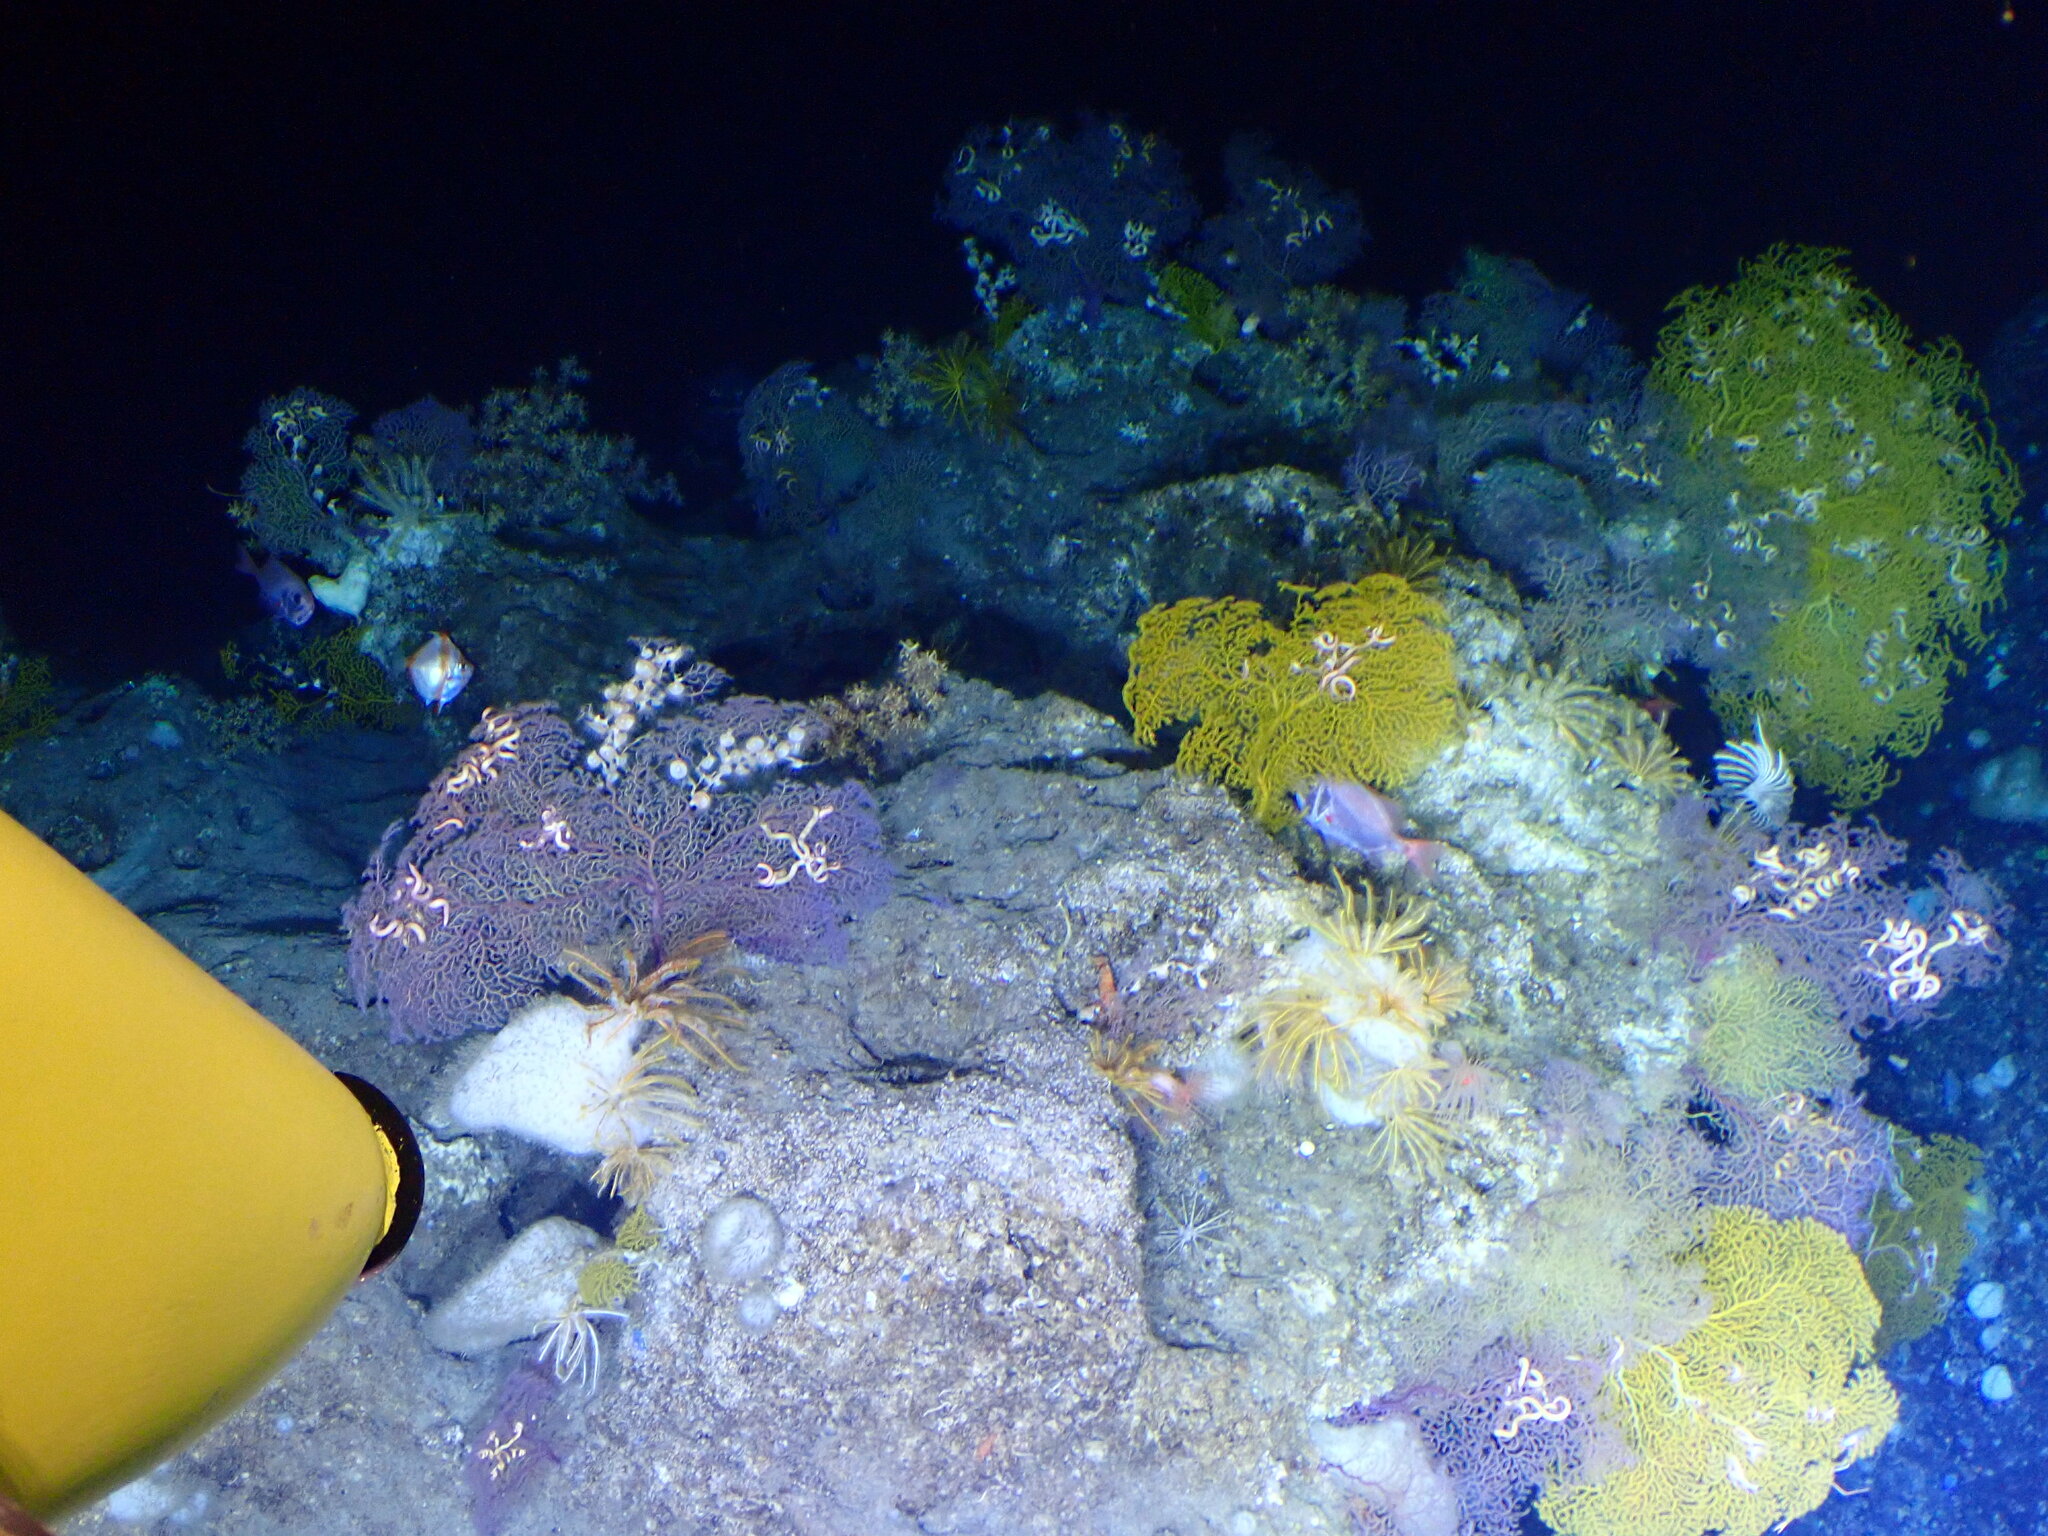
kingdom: Animalia
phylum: Chordata
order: Beryciformes
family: Trachichthyidae
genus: Gephyroberyx
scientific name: Gephyroberyx darwinii
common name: Big roughy
